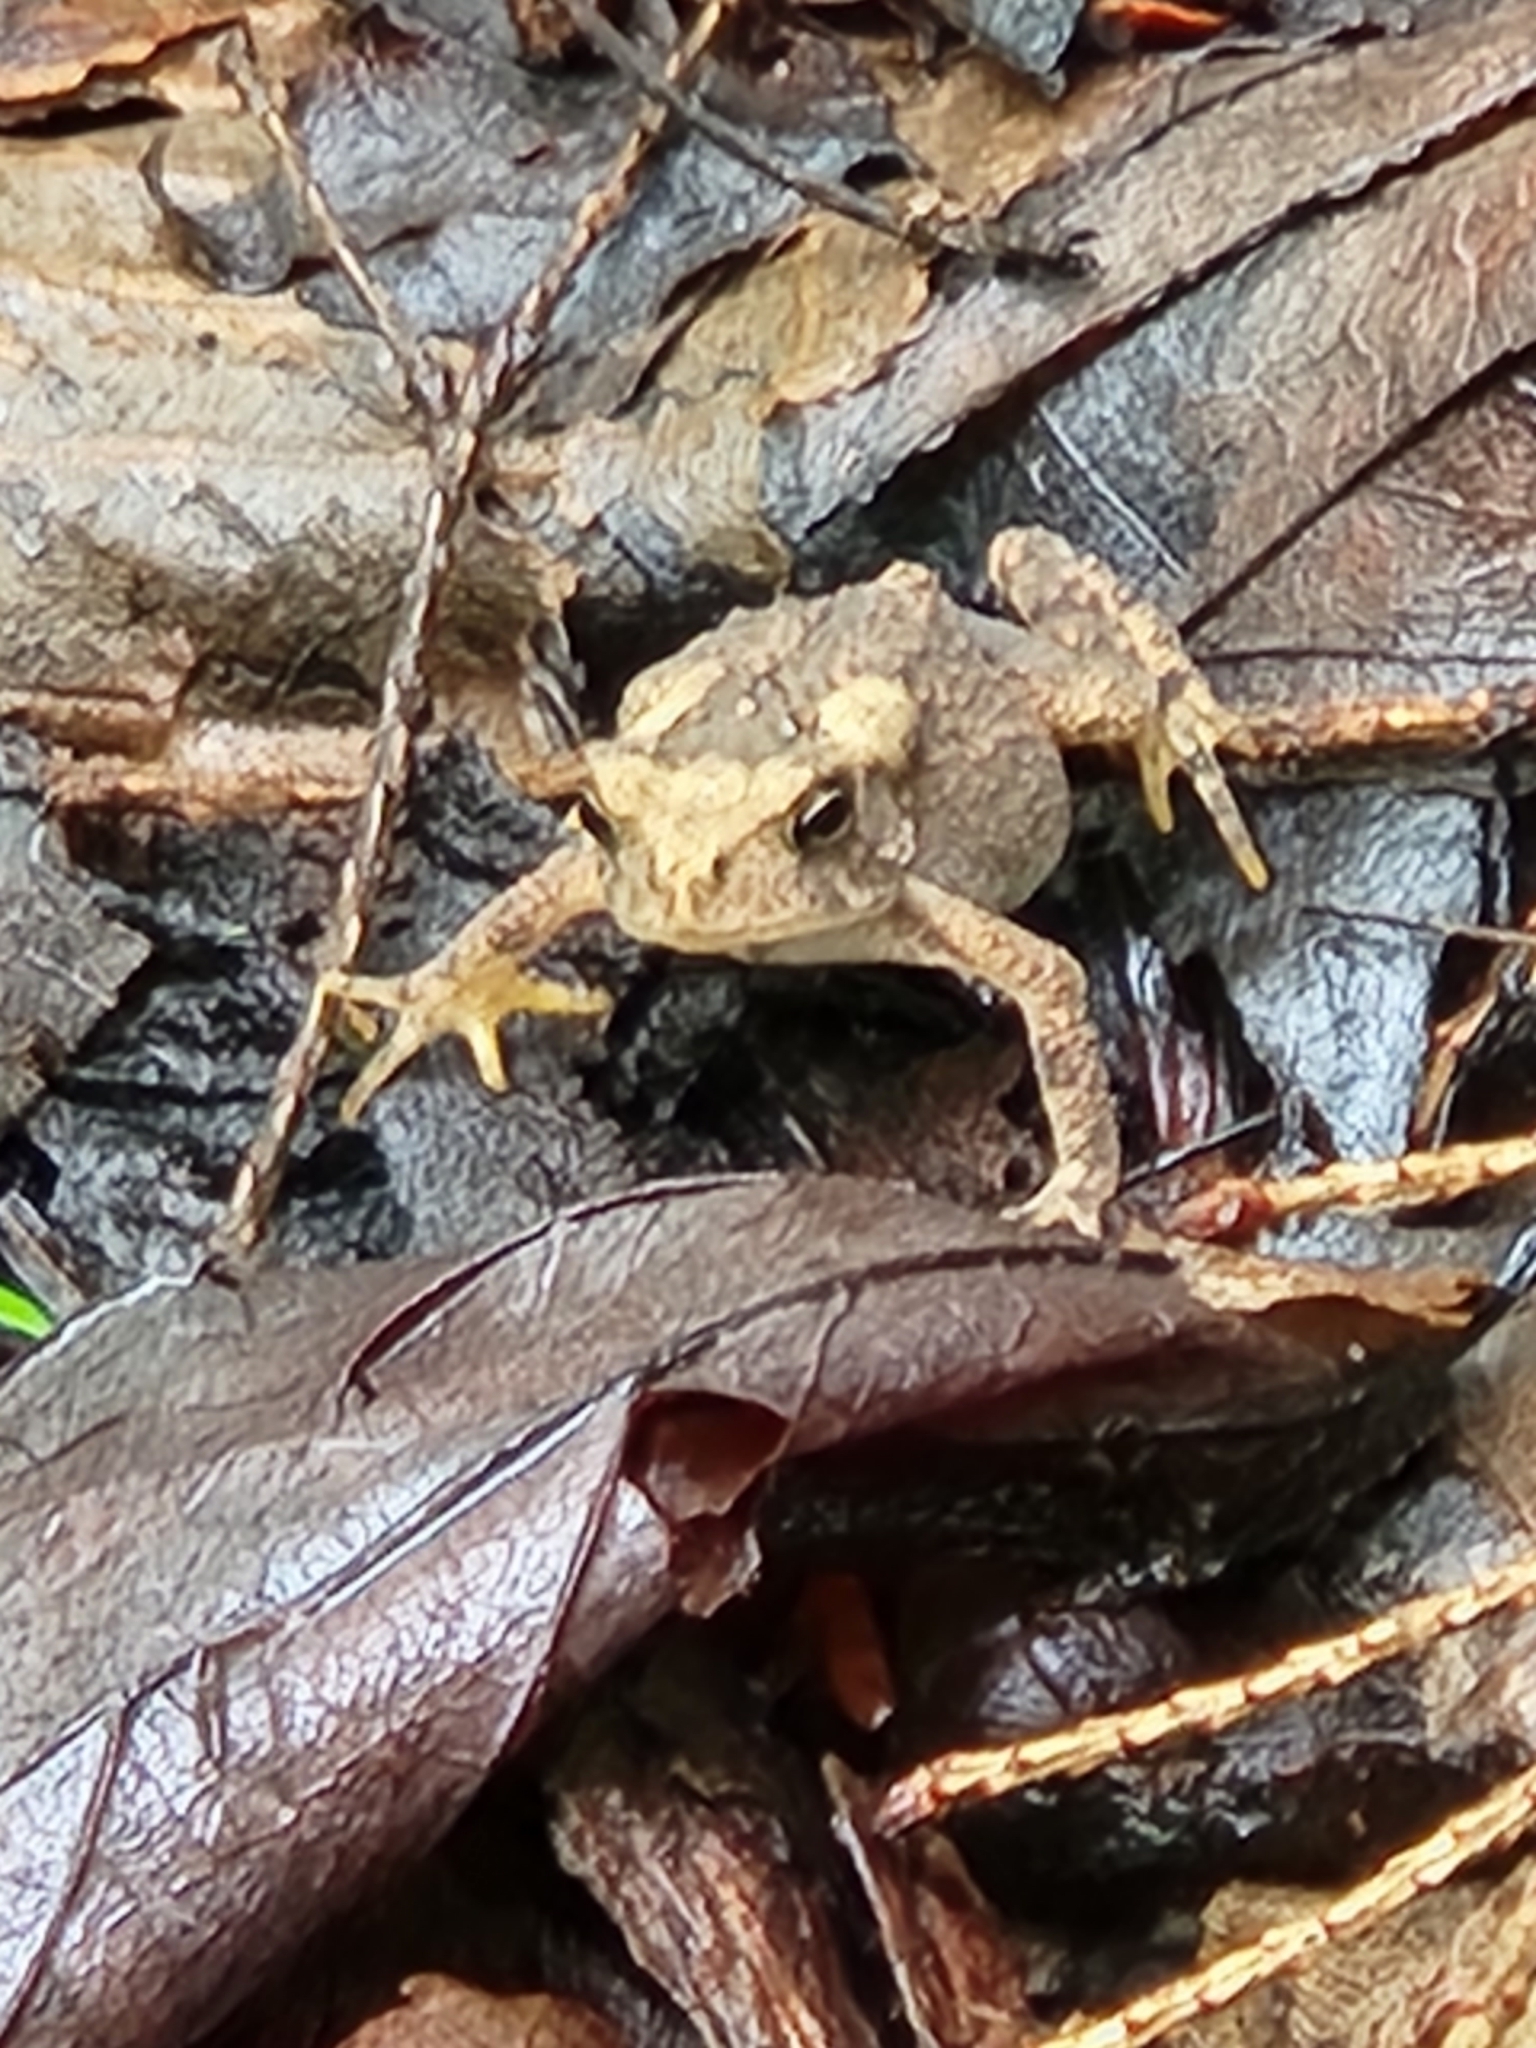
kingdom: Animalia
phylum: Chordata
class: Amphibia
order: Anura
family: Bufonidae
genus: Anaxyrus
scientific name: Anaxyrus americanus
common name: American toad
